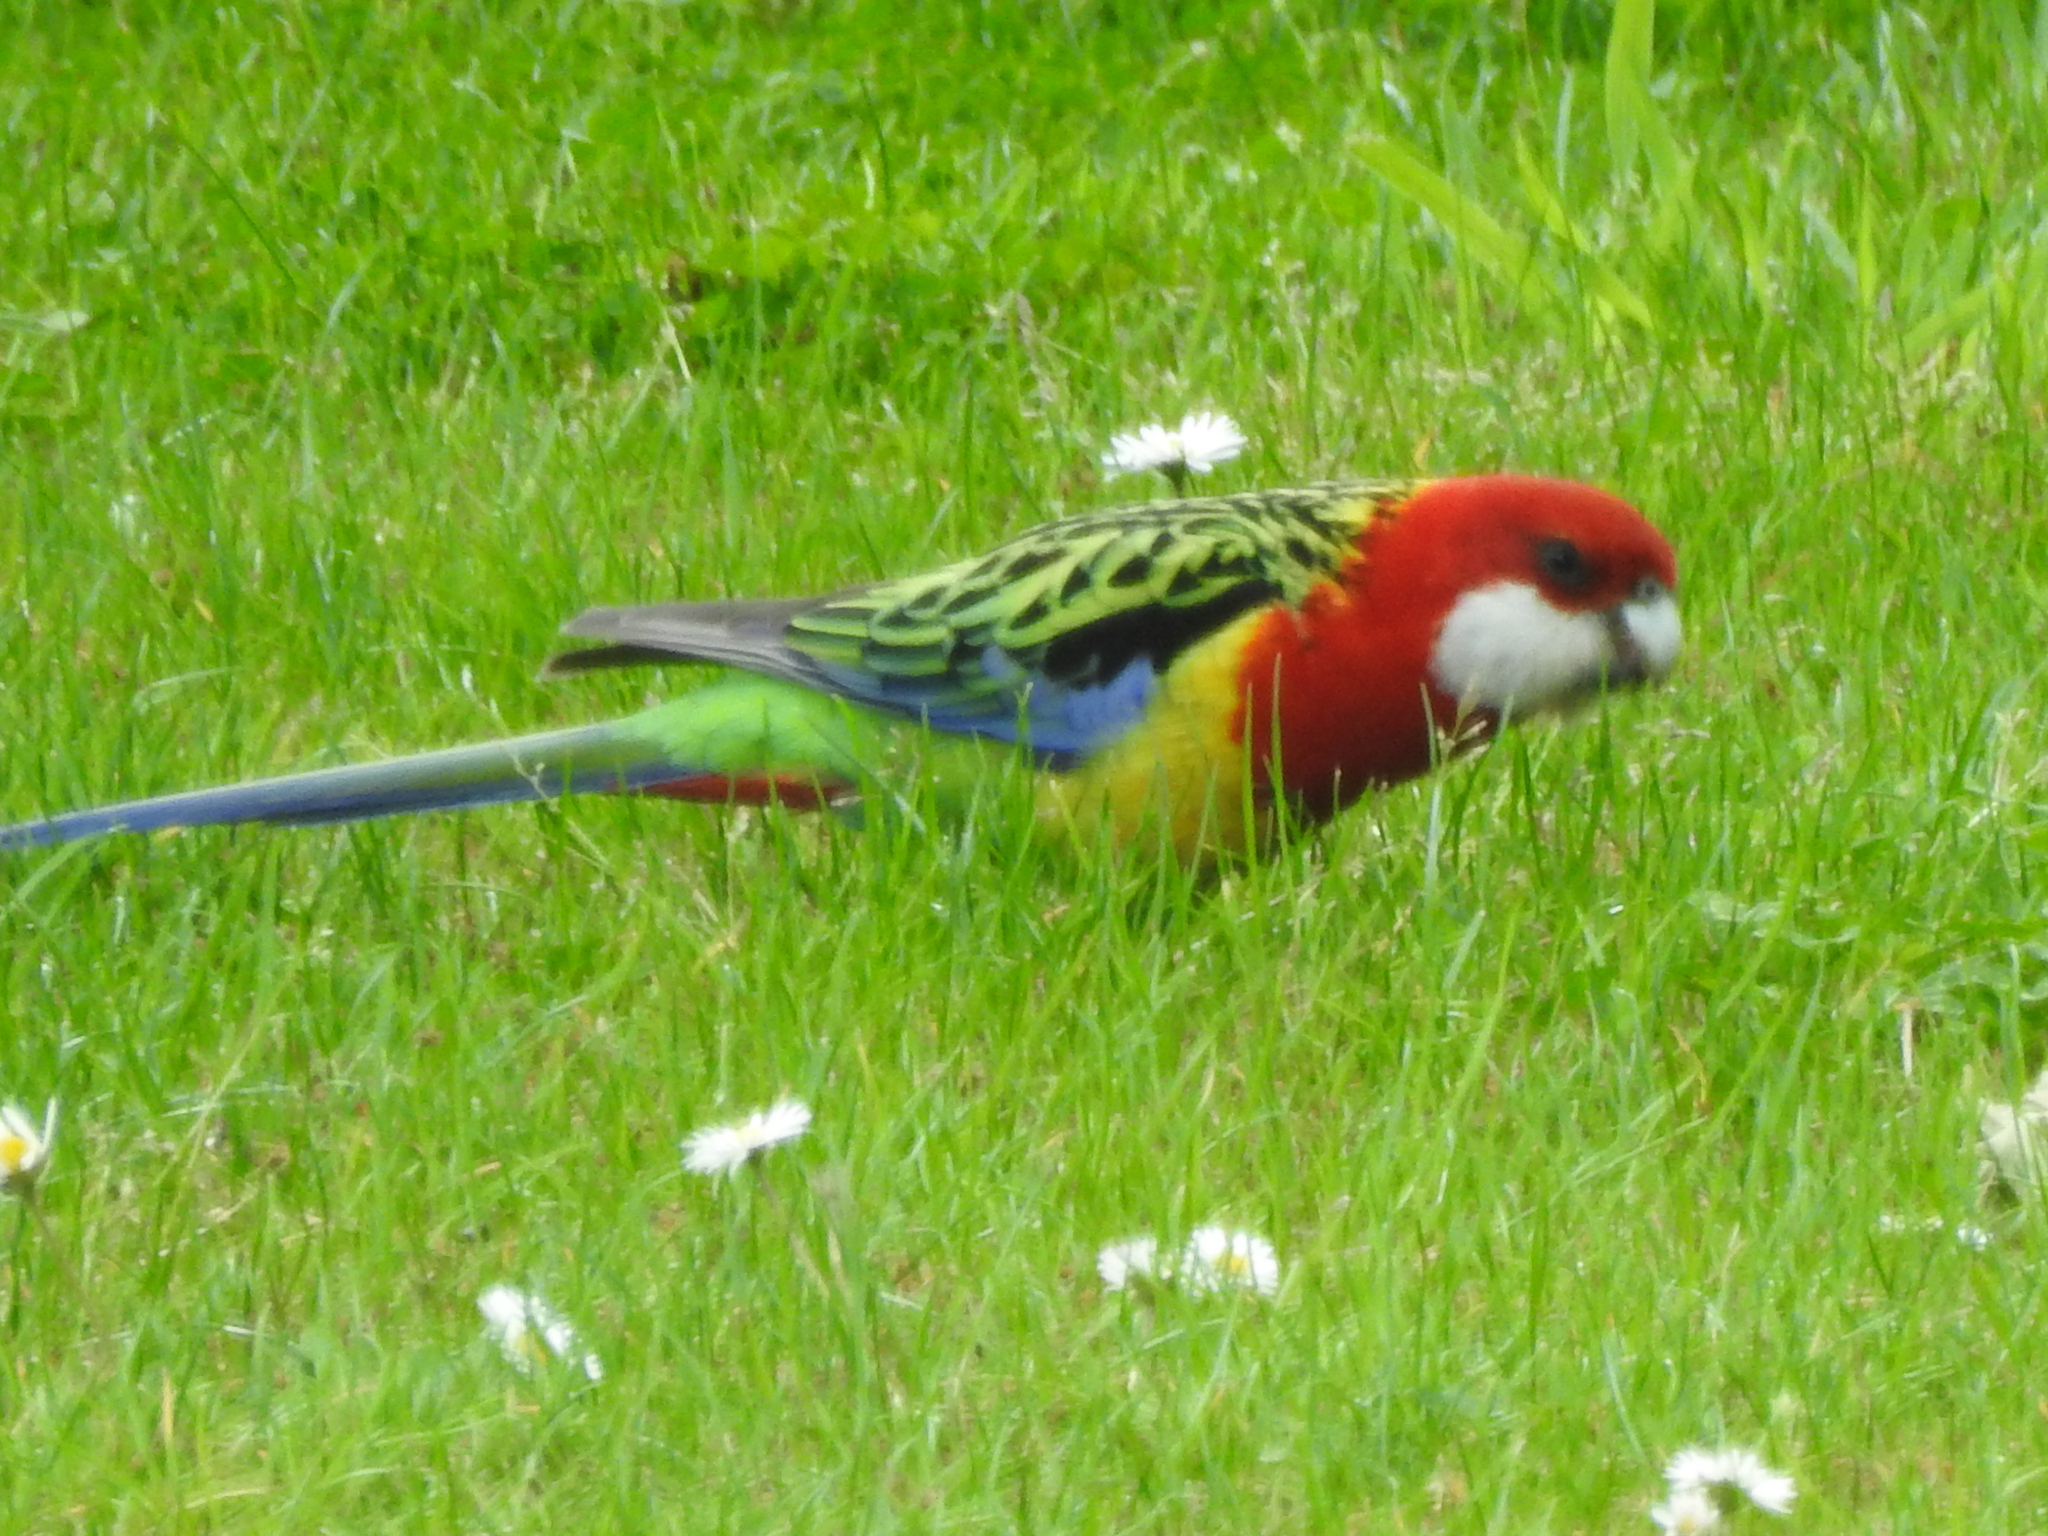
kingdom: Animalia
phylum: Chordata
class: Aves
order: Psittaciformes
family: Psittacidae
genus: Platycercus
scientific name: Platycercus eximius
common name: Eastern rosella
